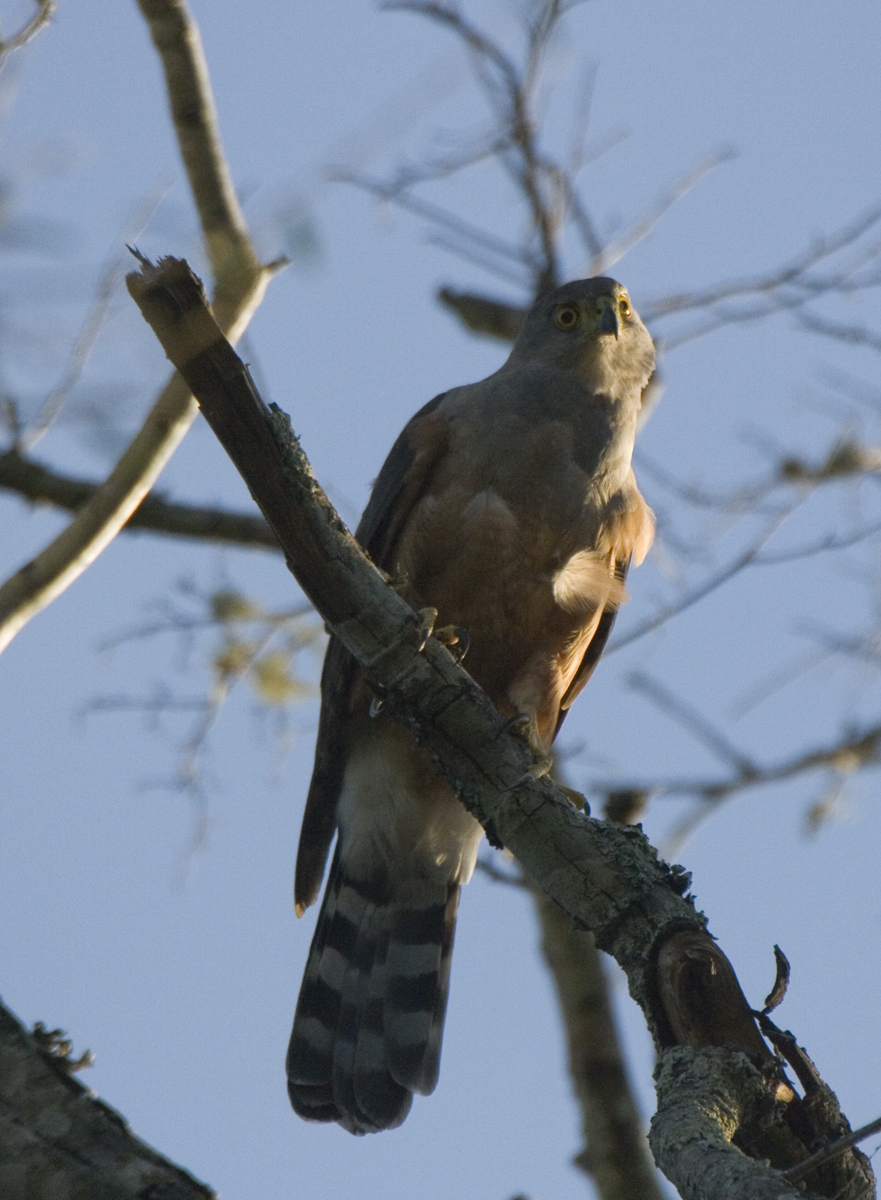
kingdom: Animalia
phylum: Chordata
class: Aves
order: Accipitriformes
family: Accipitridae
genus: Accipiter
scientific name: Accipiter bicolor
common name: Bicolored hawk
